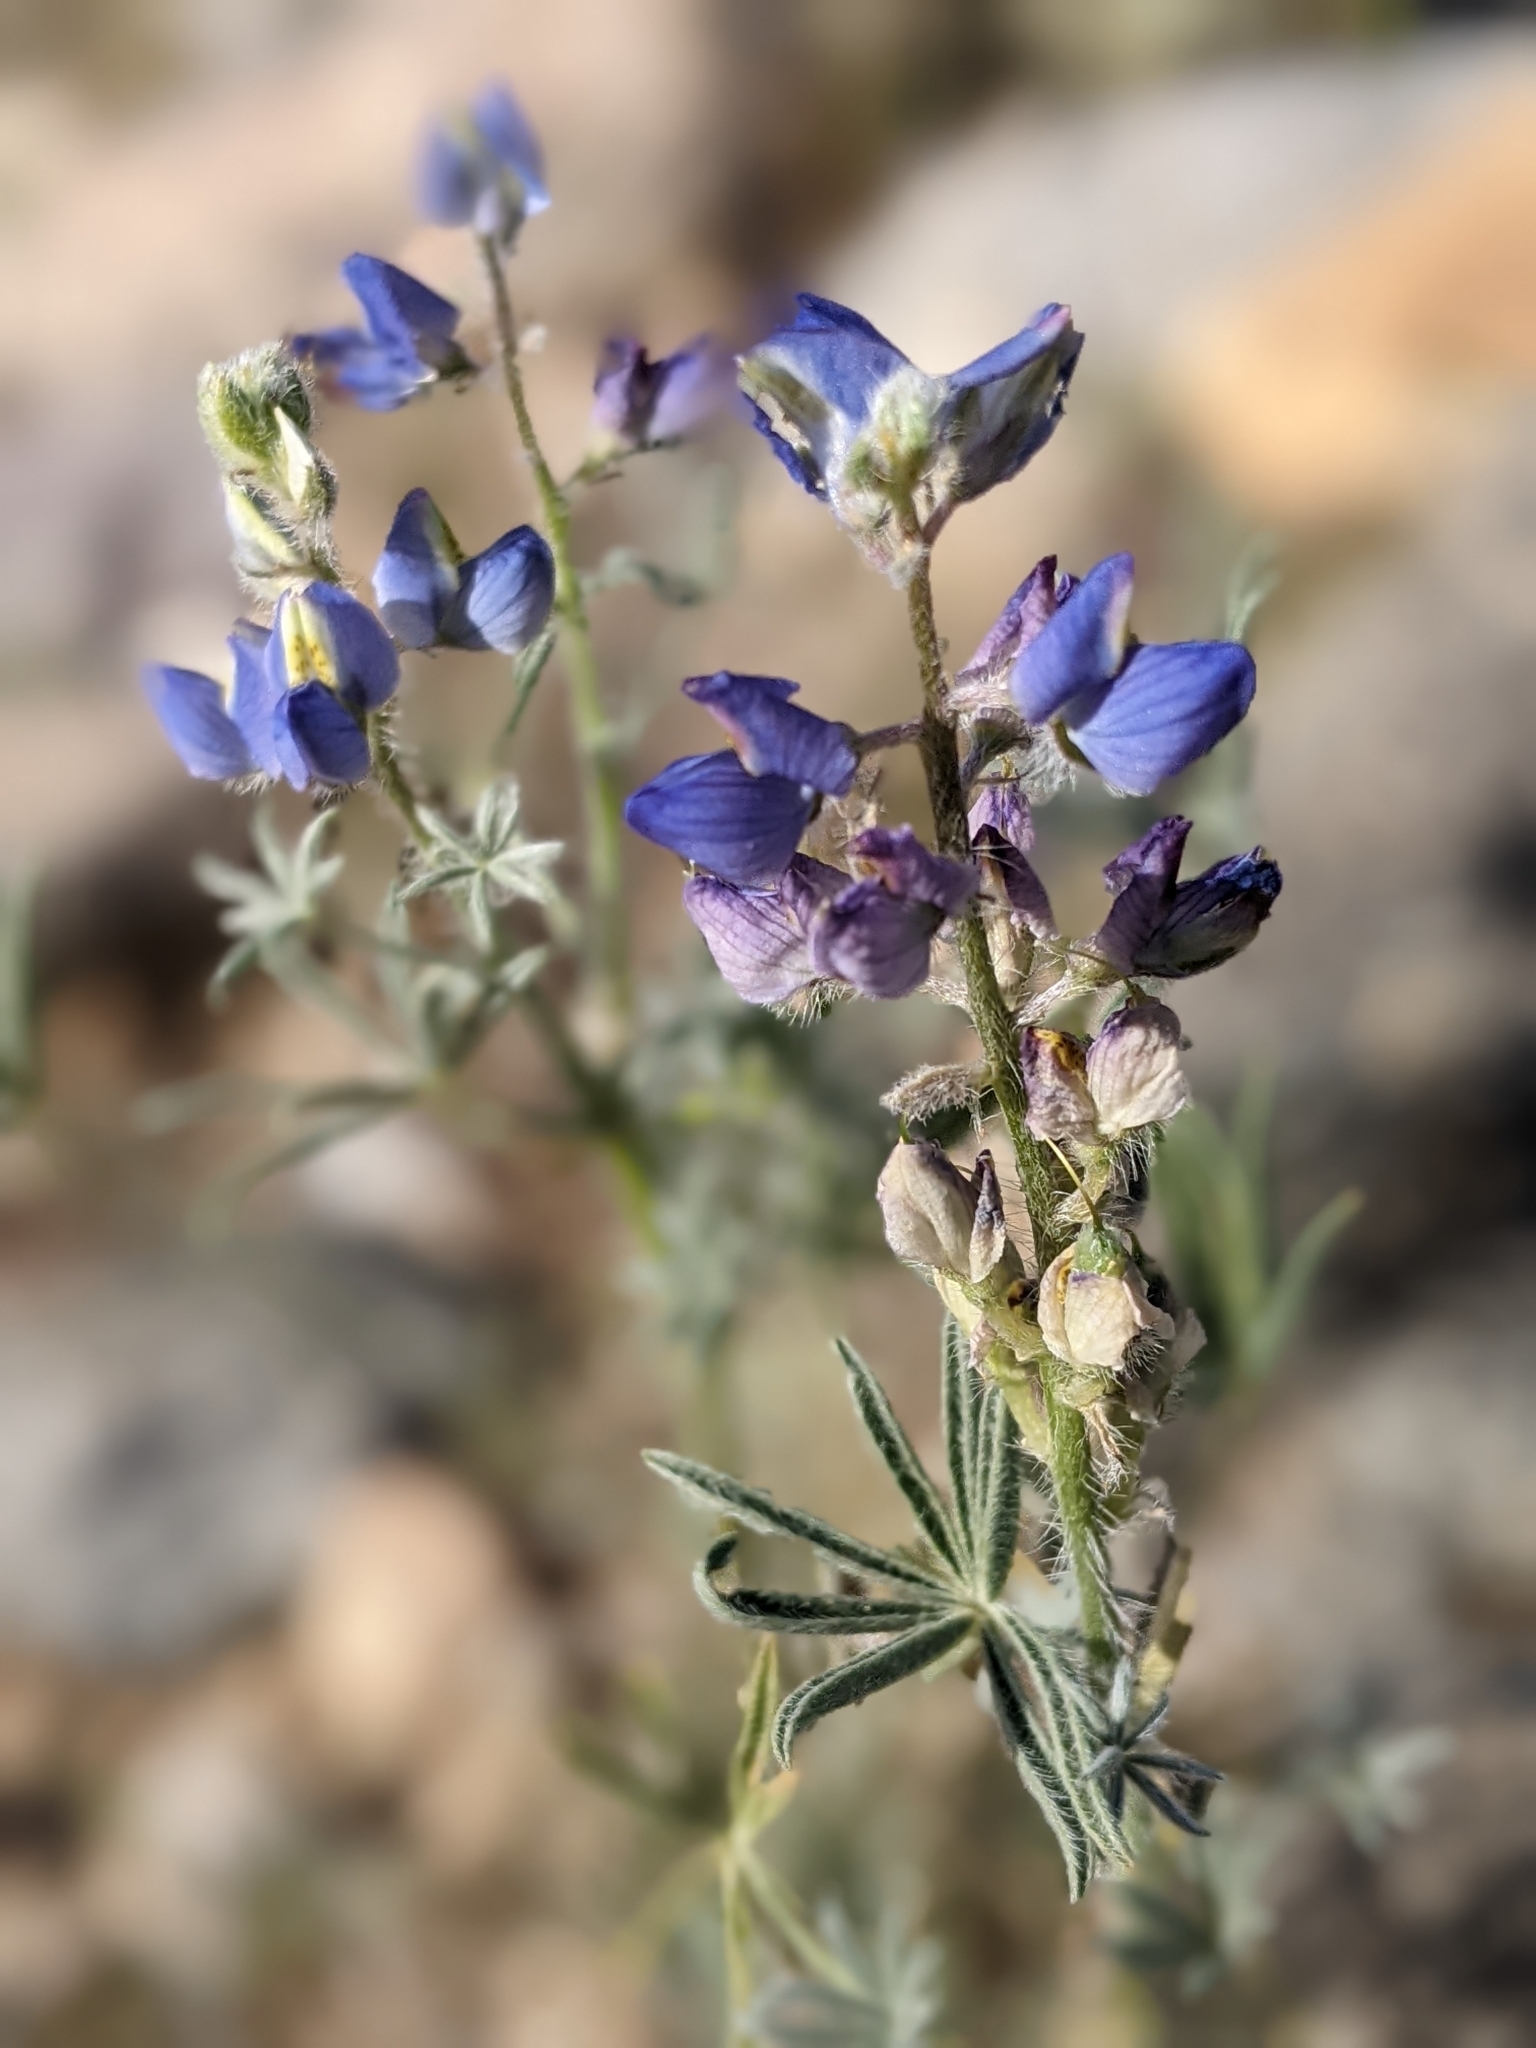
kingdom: Plantae
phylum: Tracheophyta
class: Magnoliopsida
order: Fabales
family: Fabaceae
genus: Lupinus
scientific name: Lupinus sparsiflorus
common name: Coulter's lupine
